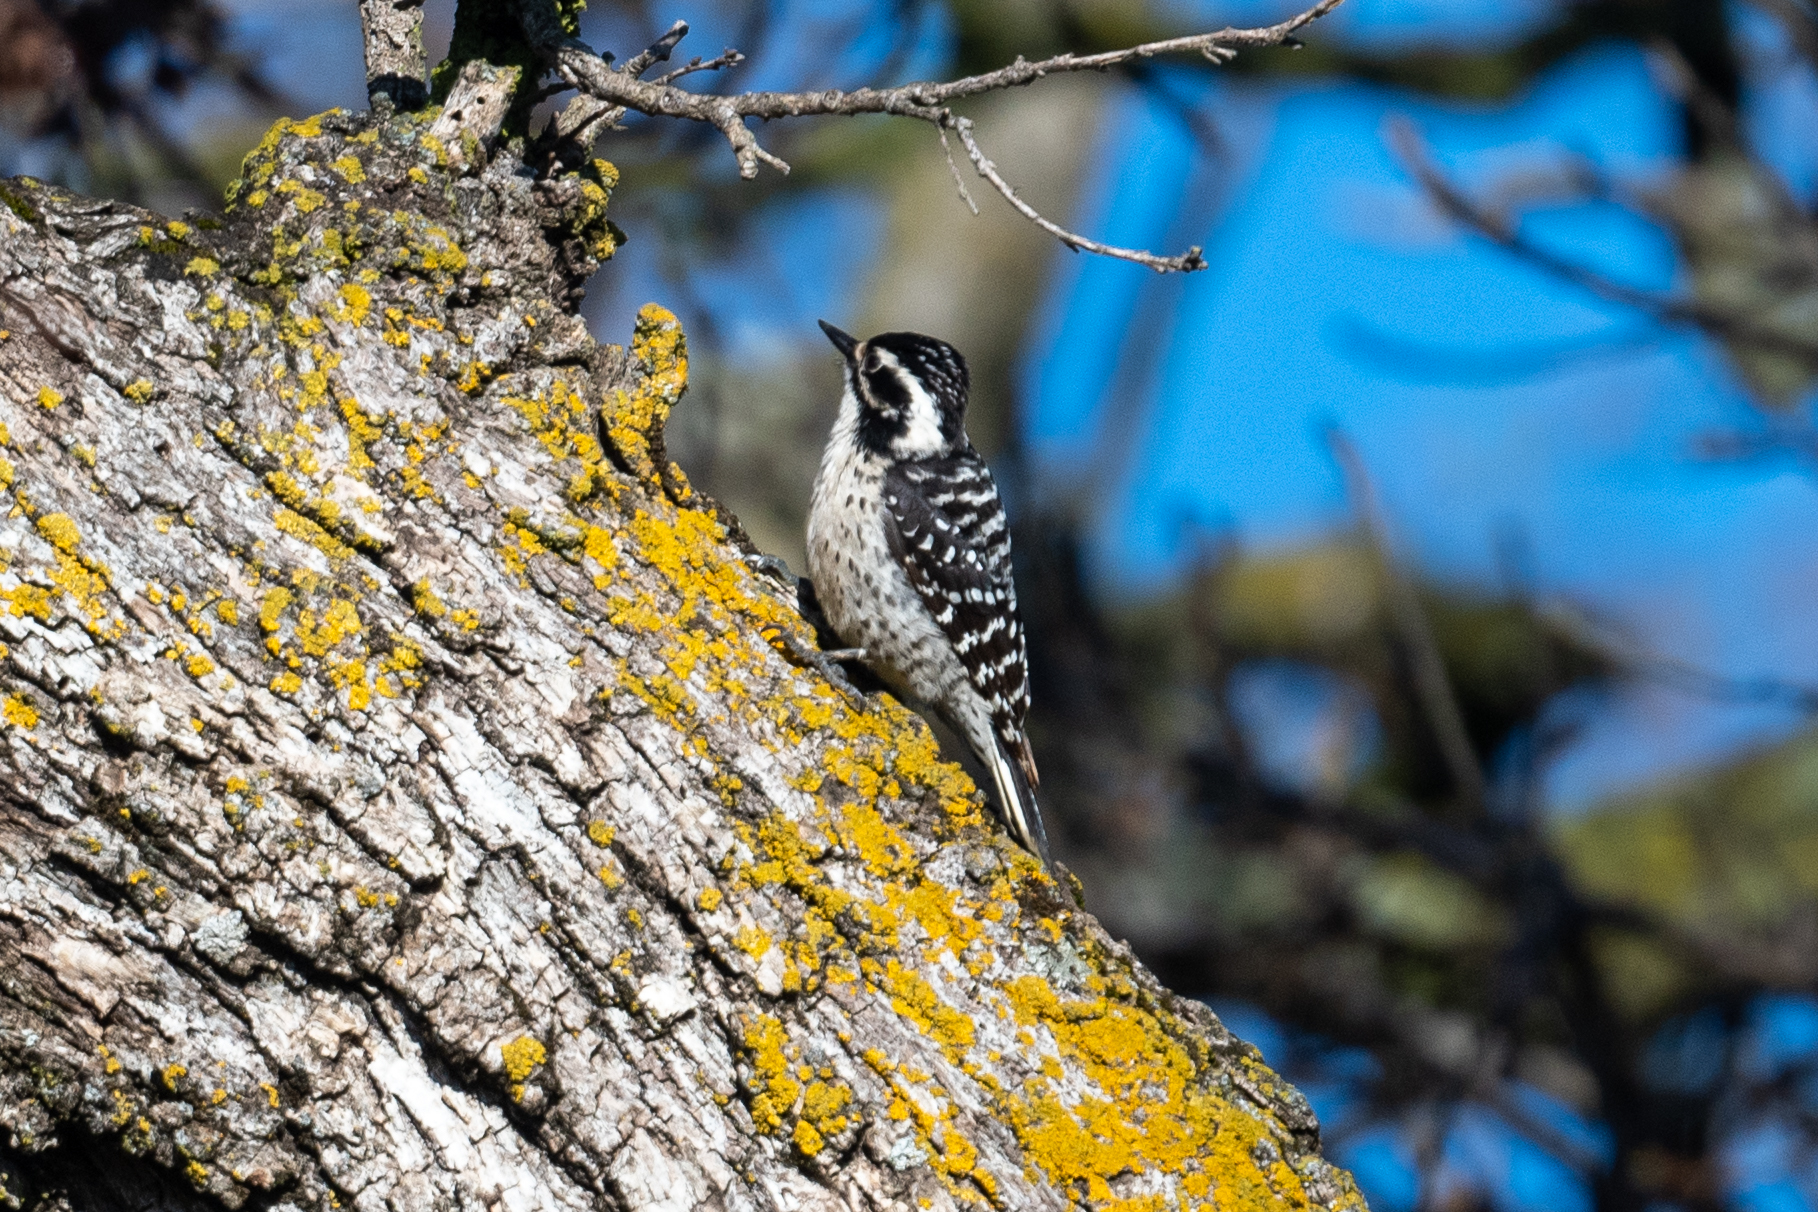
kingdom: Animalia
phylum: Chordata
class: Aves
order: Piciformes
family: Picidae
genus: Dryobates
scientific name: Dryobates nuttallii
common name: Nuttall's woodpecker
